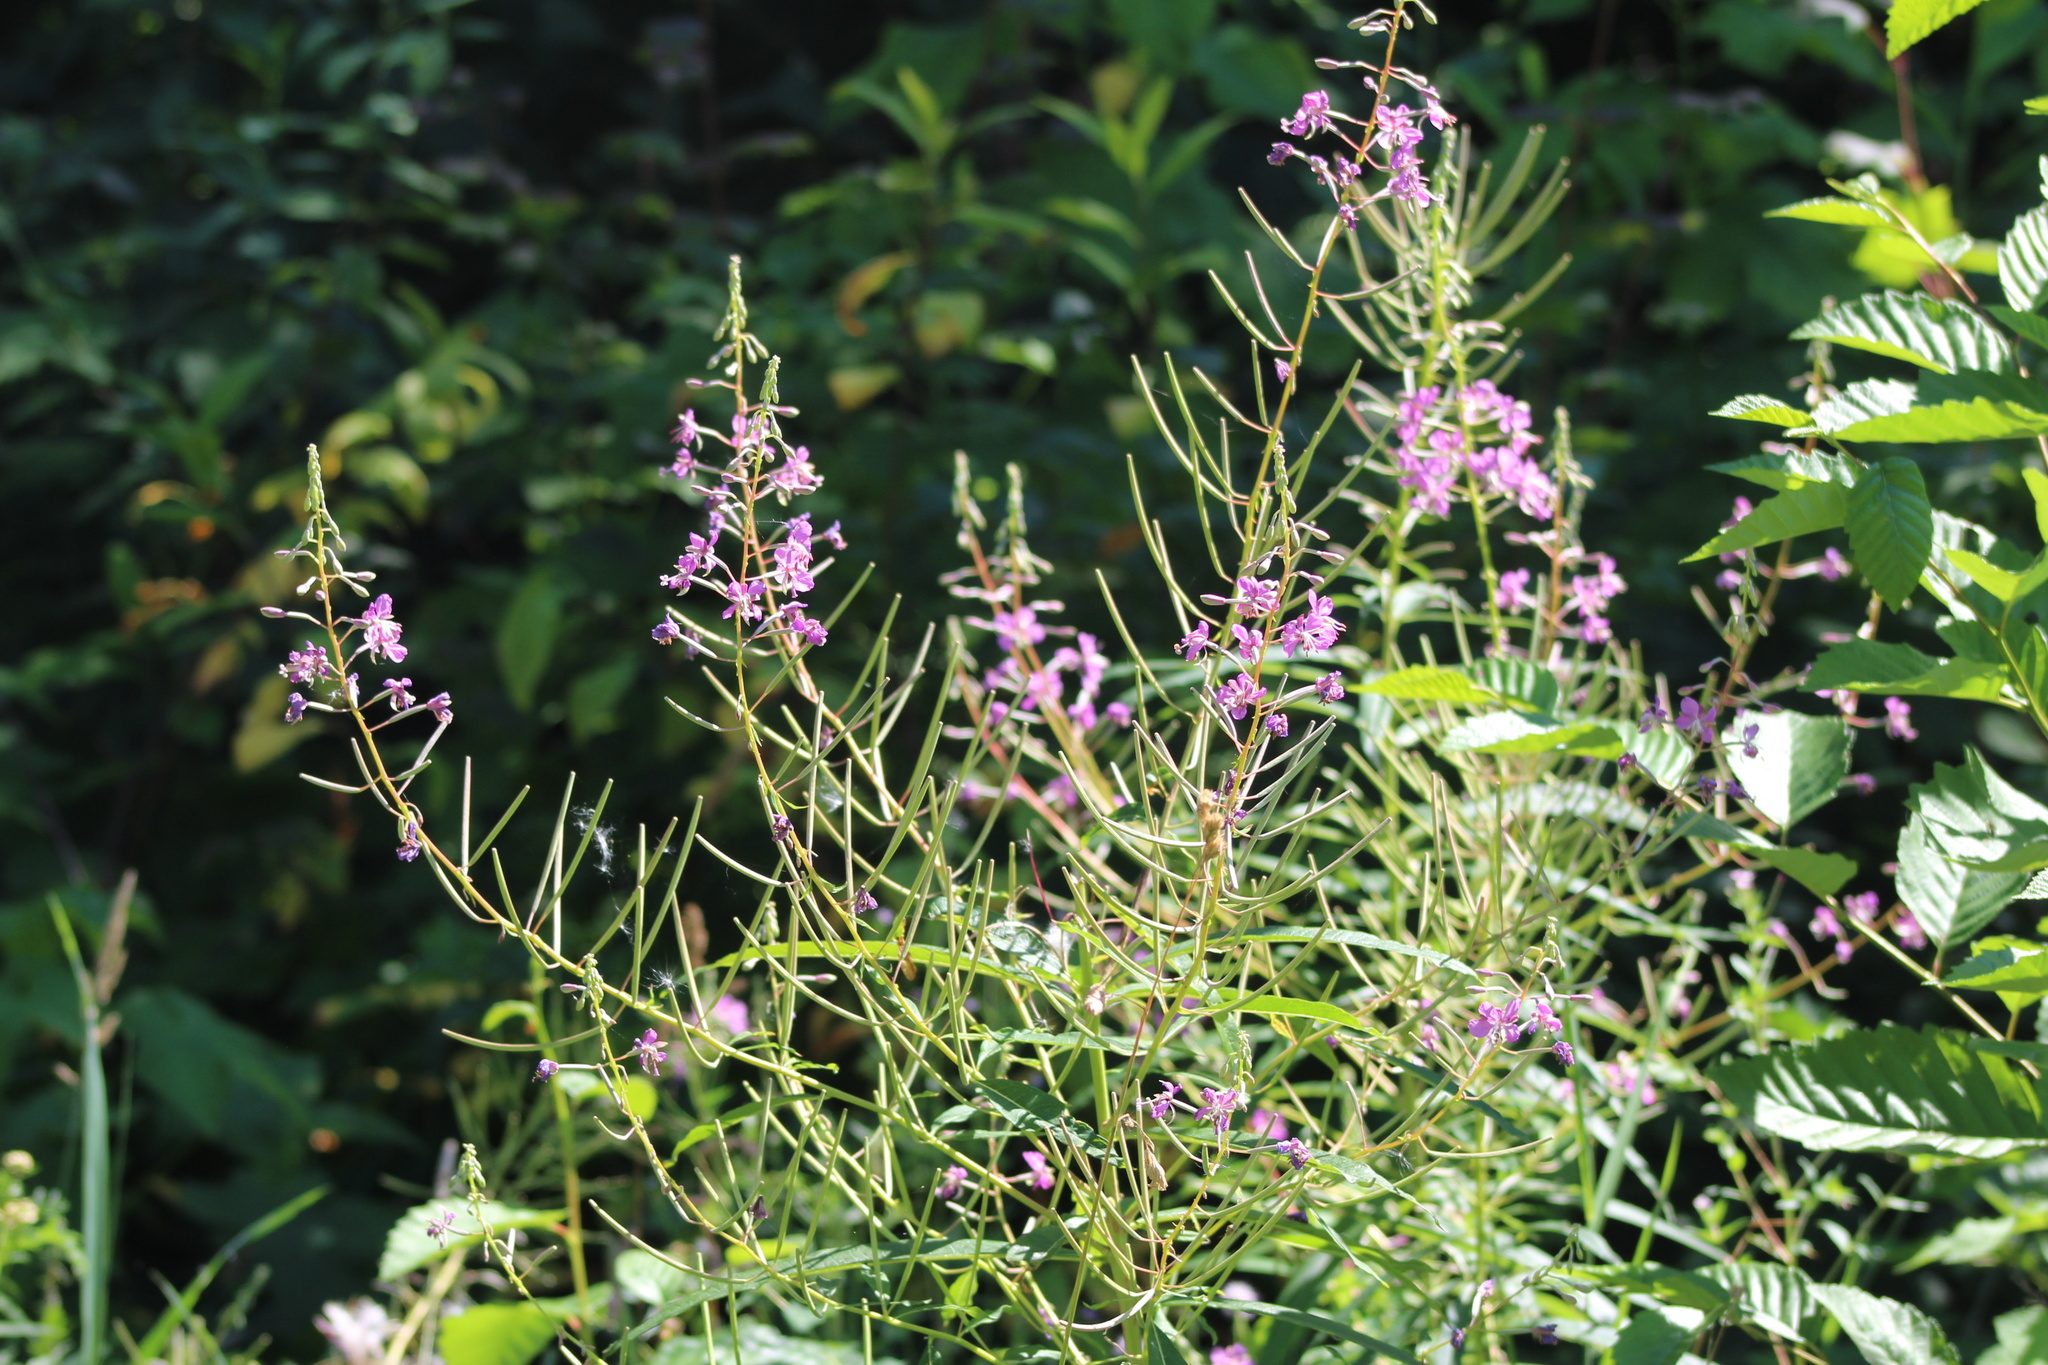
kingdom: Plantae
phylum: Tracheophyta
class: Magnoliopsida
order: Myrtales
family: Onagraceae
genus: Chamaenerion
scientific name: Chamaenerion angustifolium
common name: Fireweed
